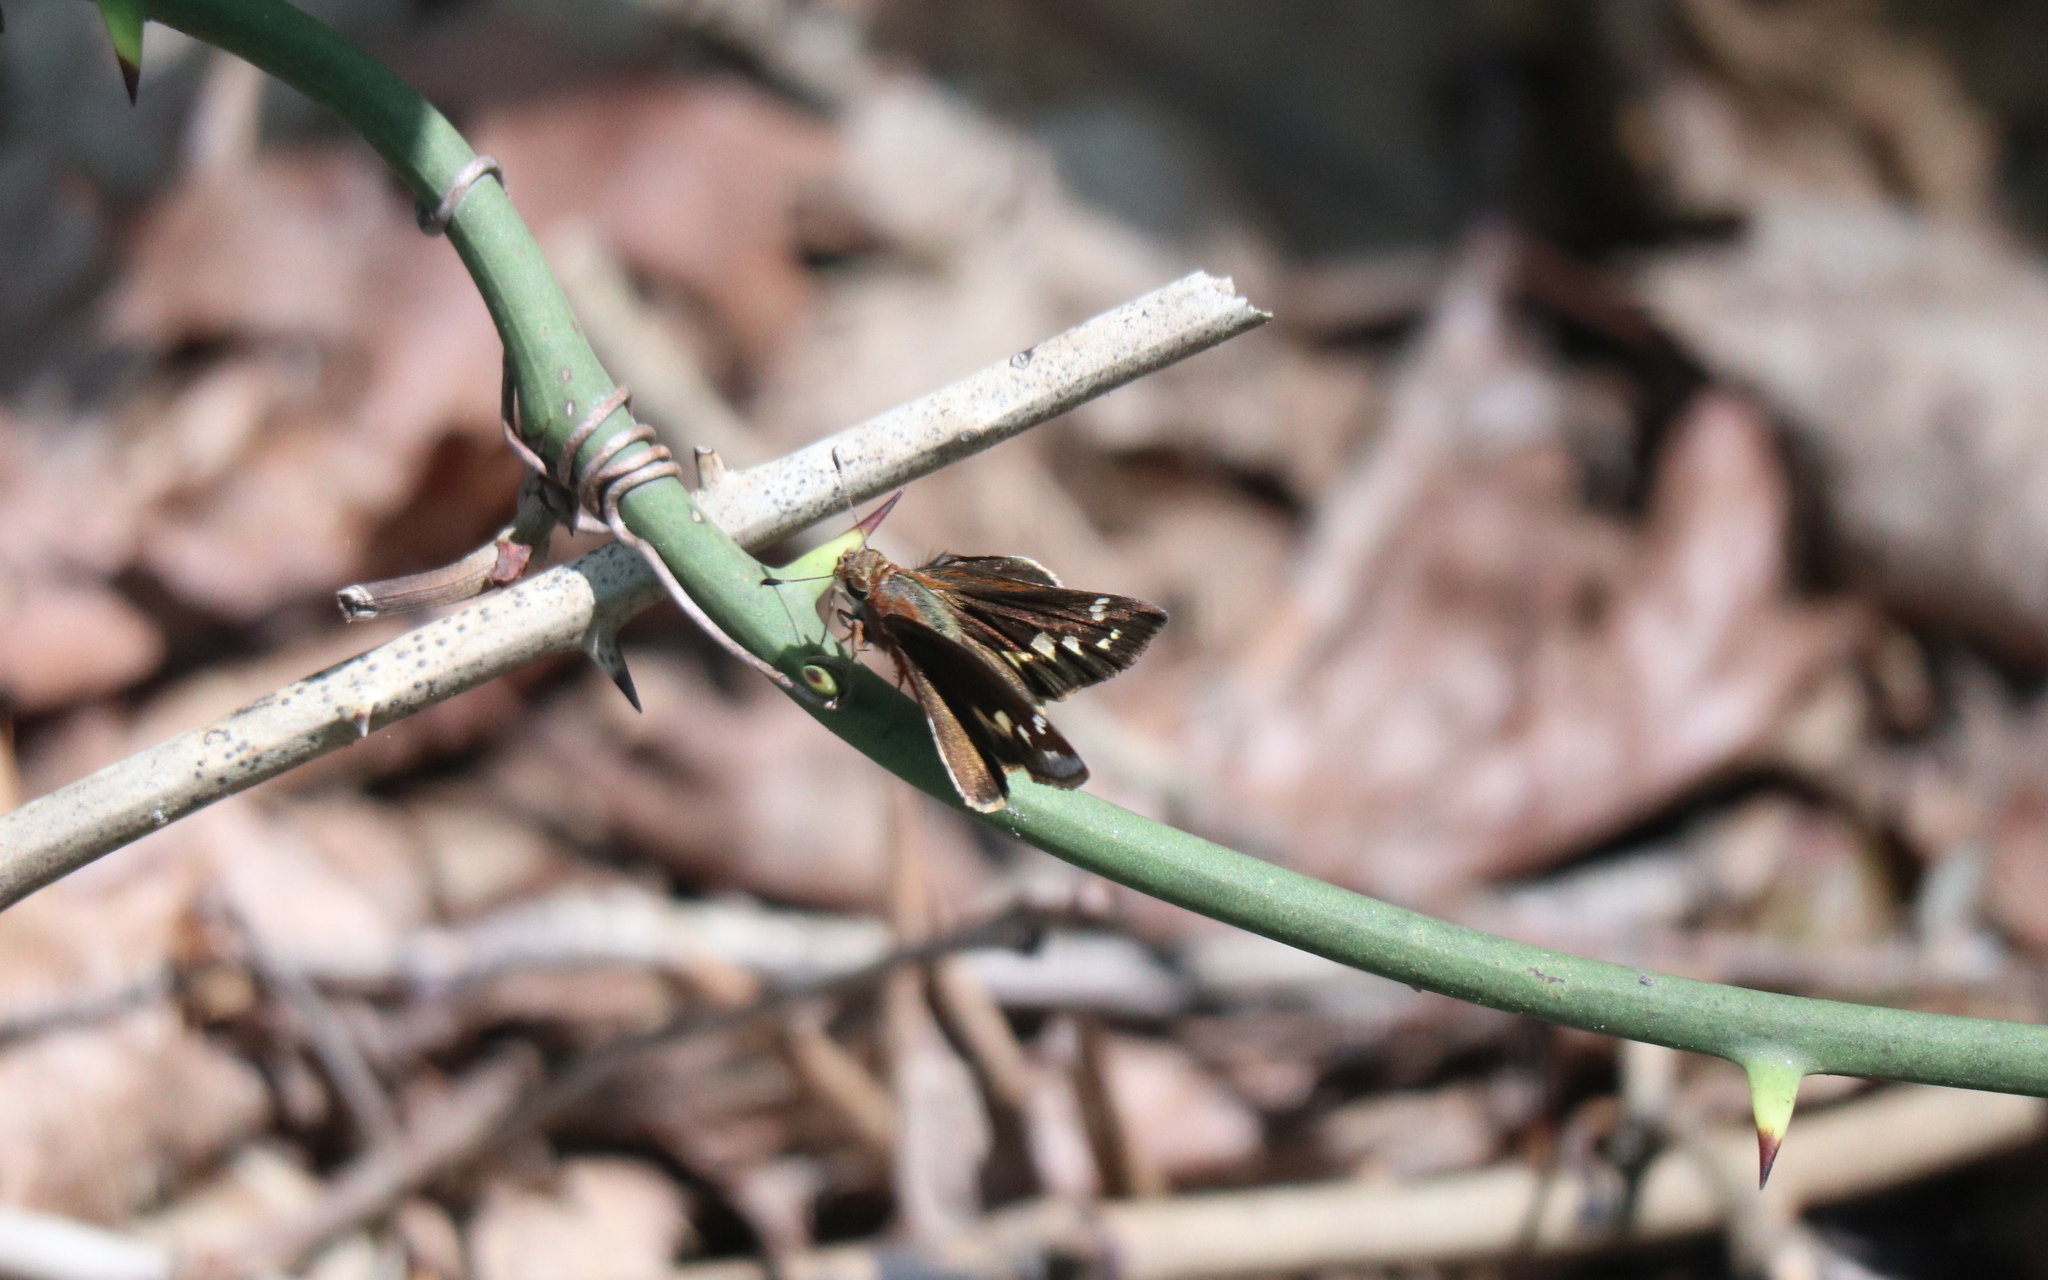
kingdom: Animalia
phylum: Arthropoda
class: Insecta
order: Lepidoptera
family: Hesperiidae
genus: Lon
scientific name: Lon zabulon
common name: Zabulon skipper
